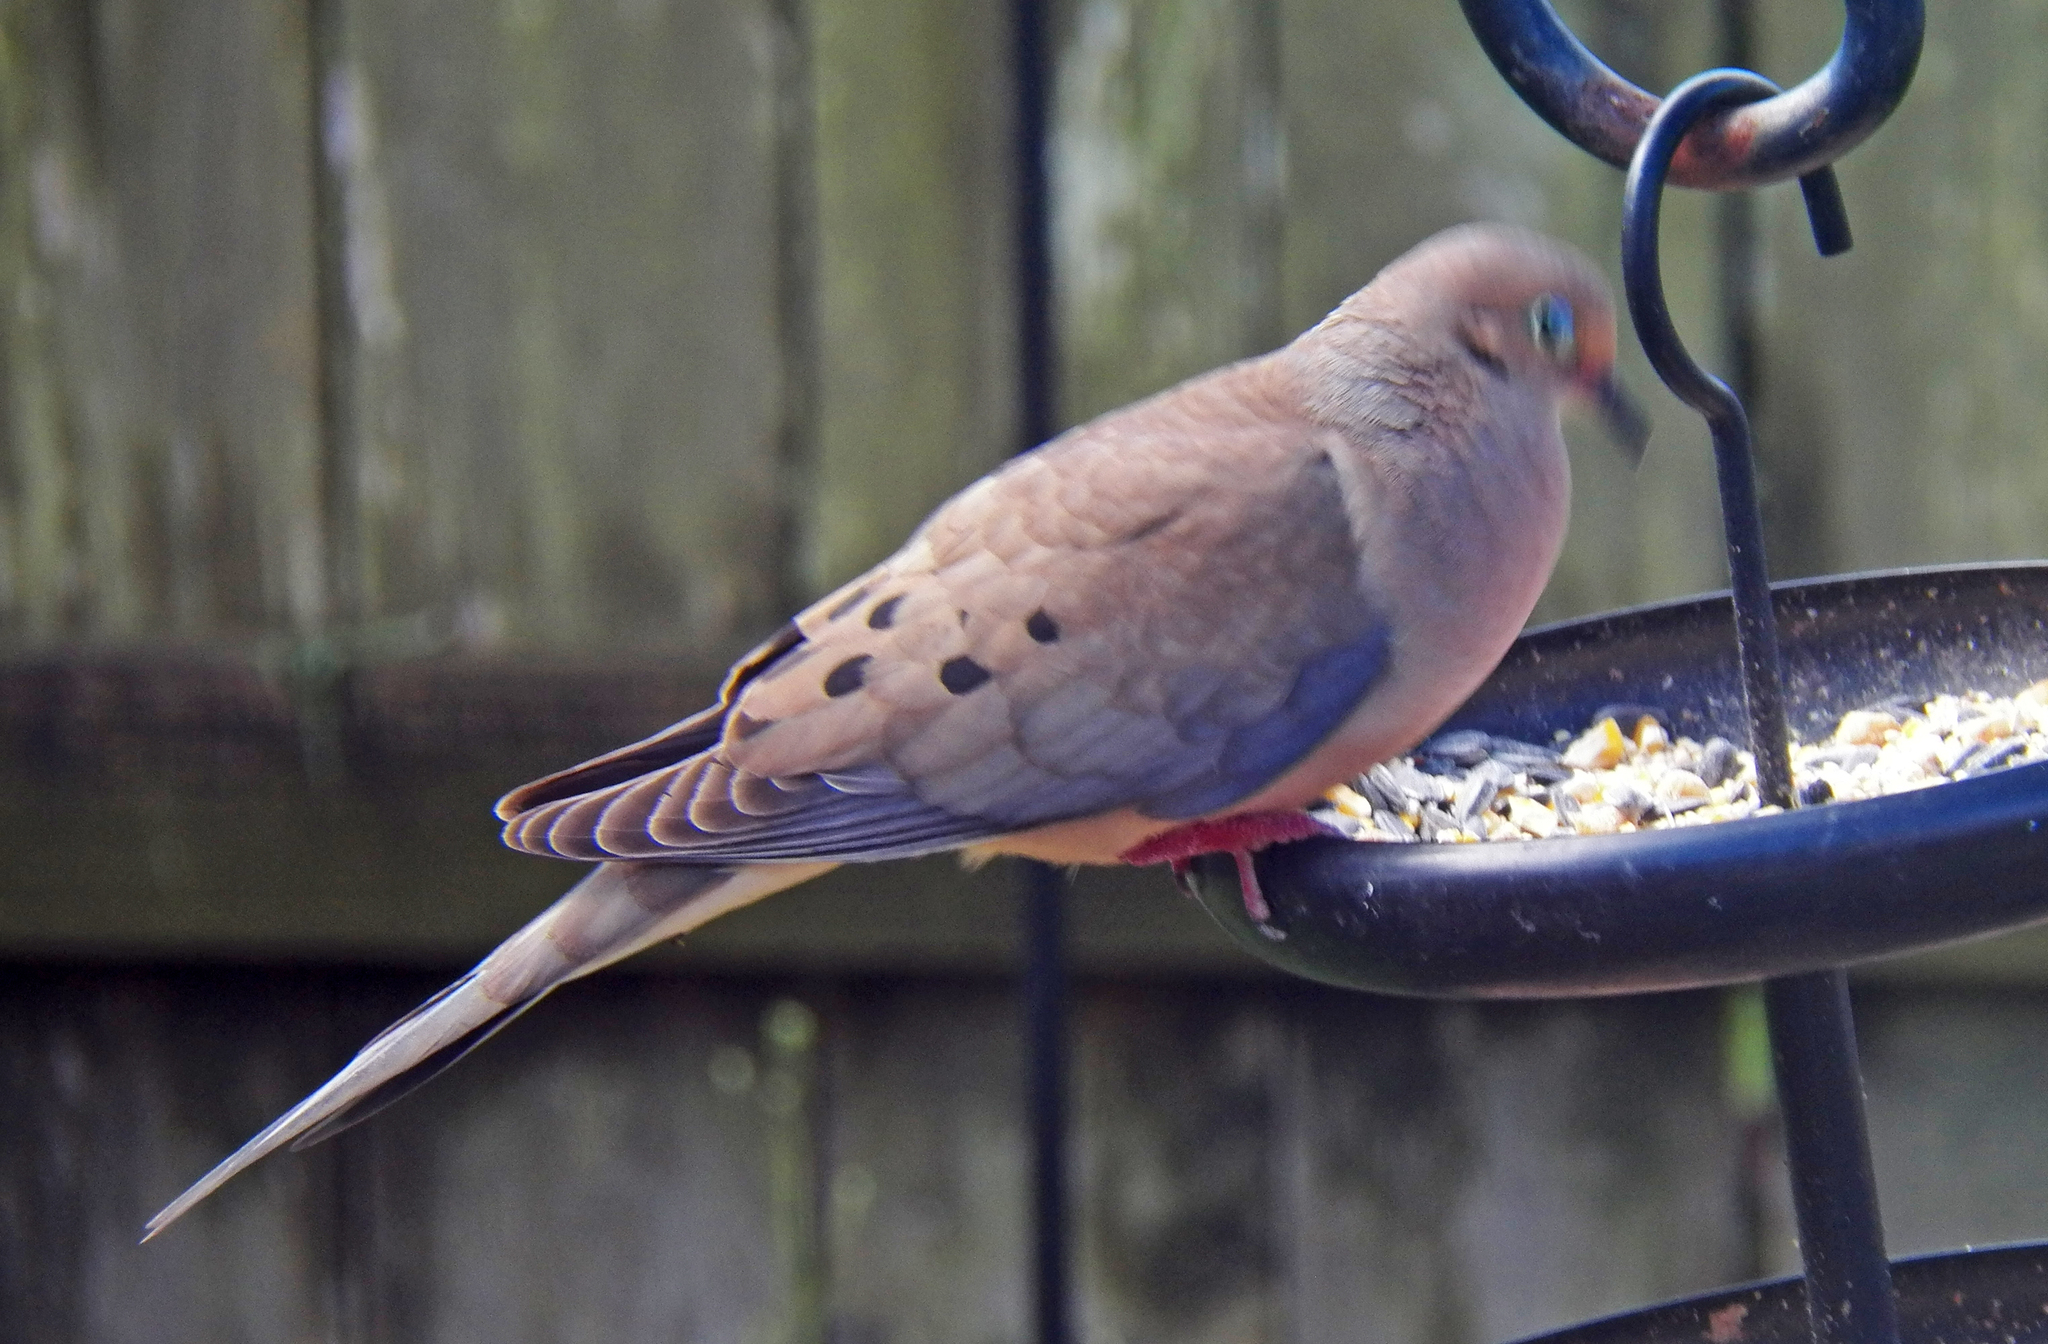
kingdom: Animalia
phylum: Chordata
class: Aves
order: Columbiformes
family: Columbidae
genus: Zenaida
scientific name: Zenaida macroura
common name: Mourning dove
